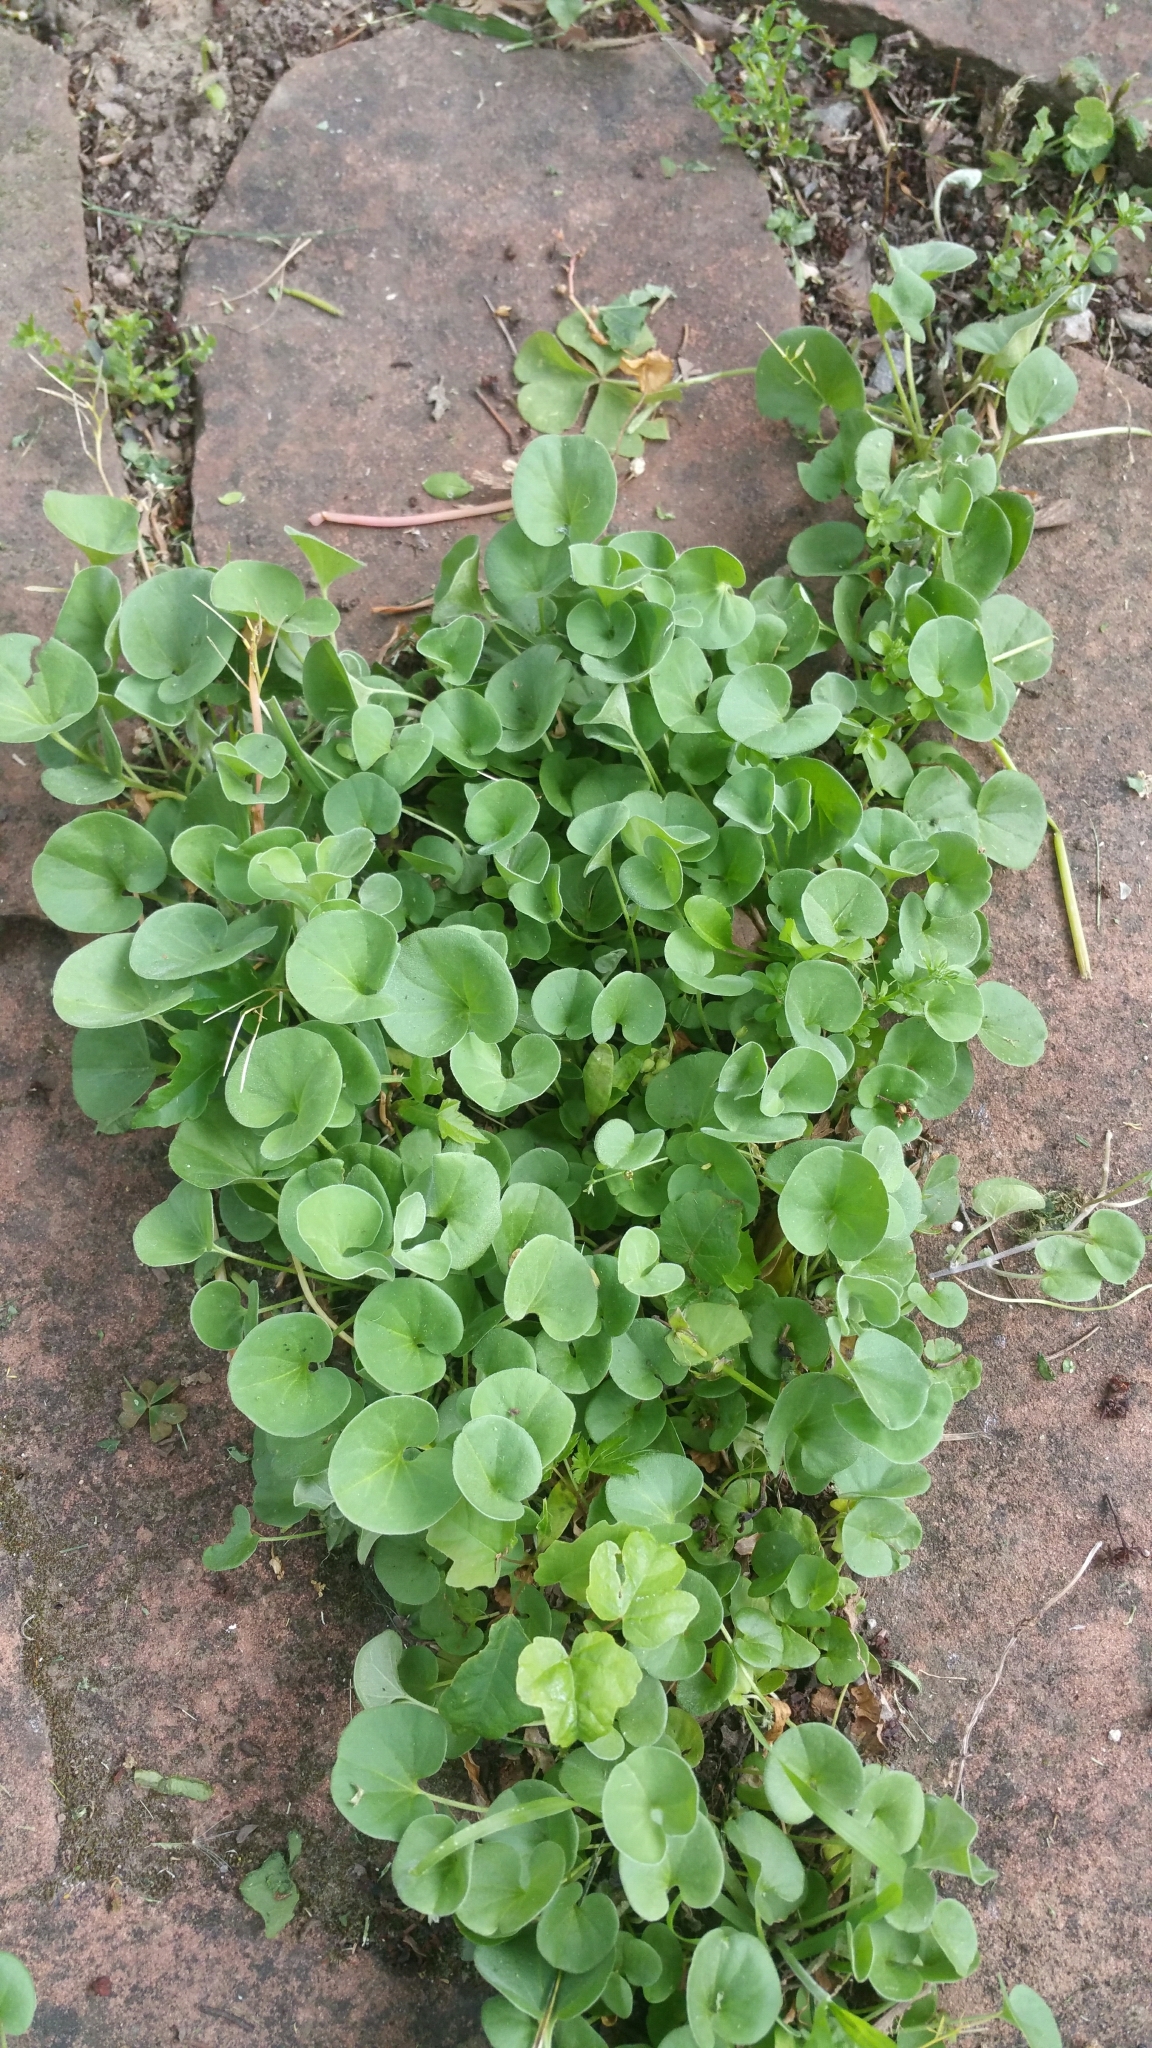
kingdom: Plantae
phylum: Tracheophyta
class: Magnoliopsida
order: Solanales
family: Convolvulaceae
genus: Dichondra
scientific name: Dichondra donelliana
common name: California ponysfoot
